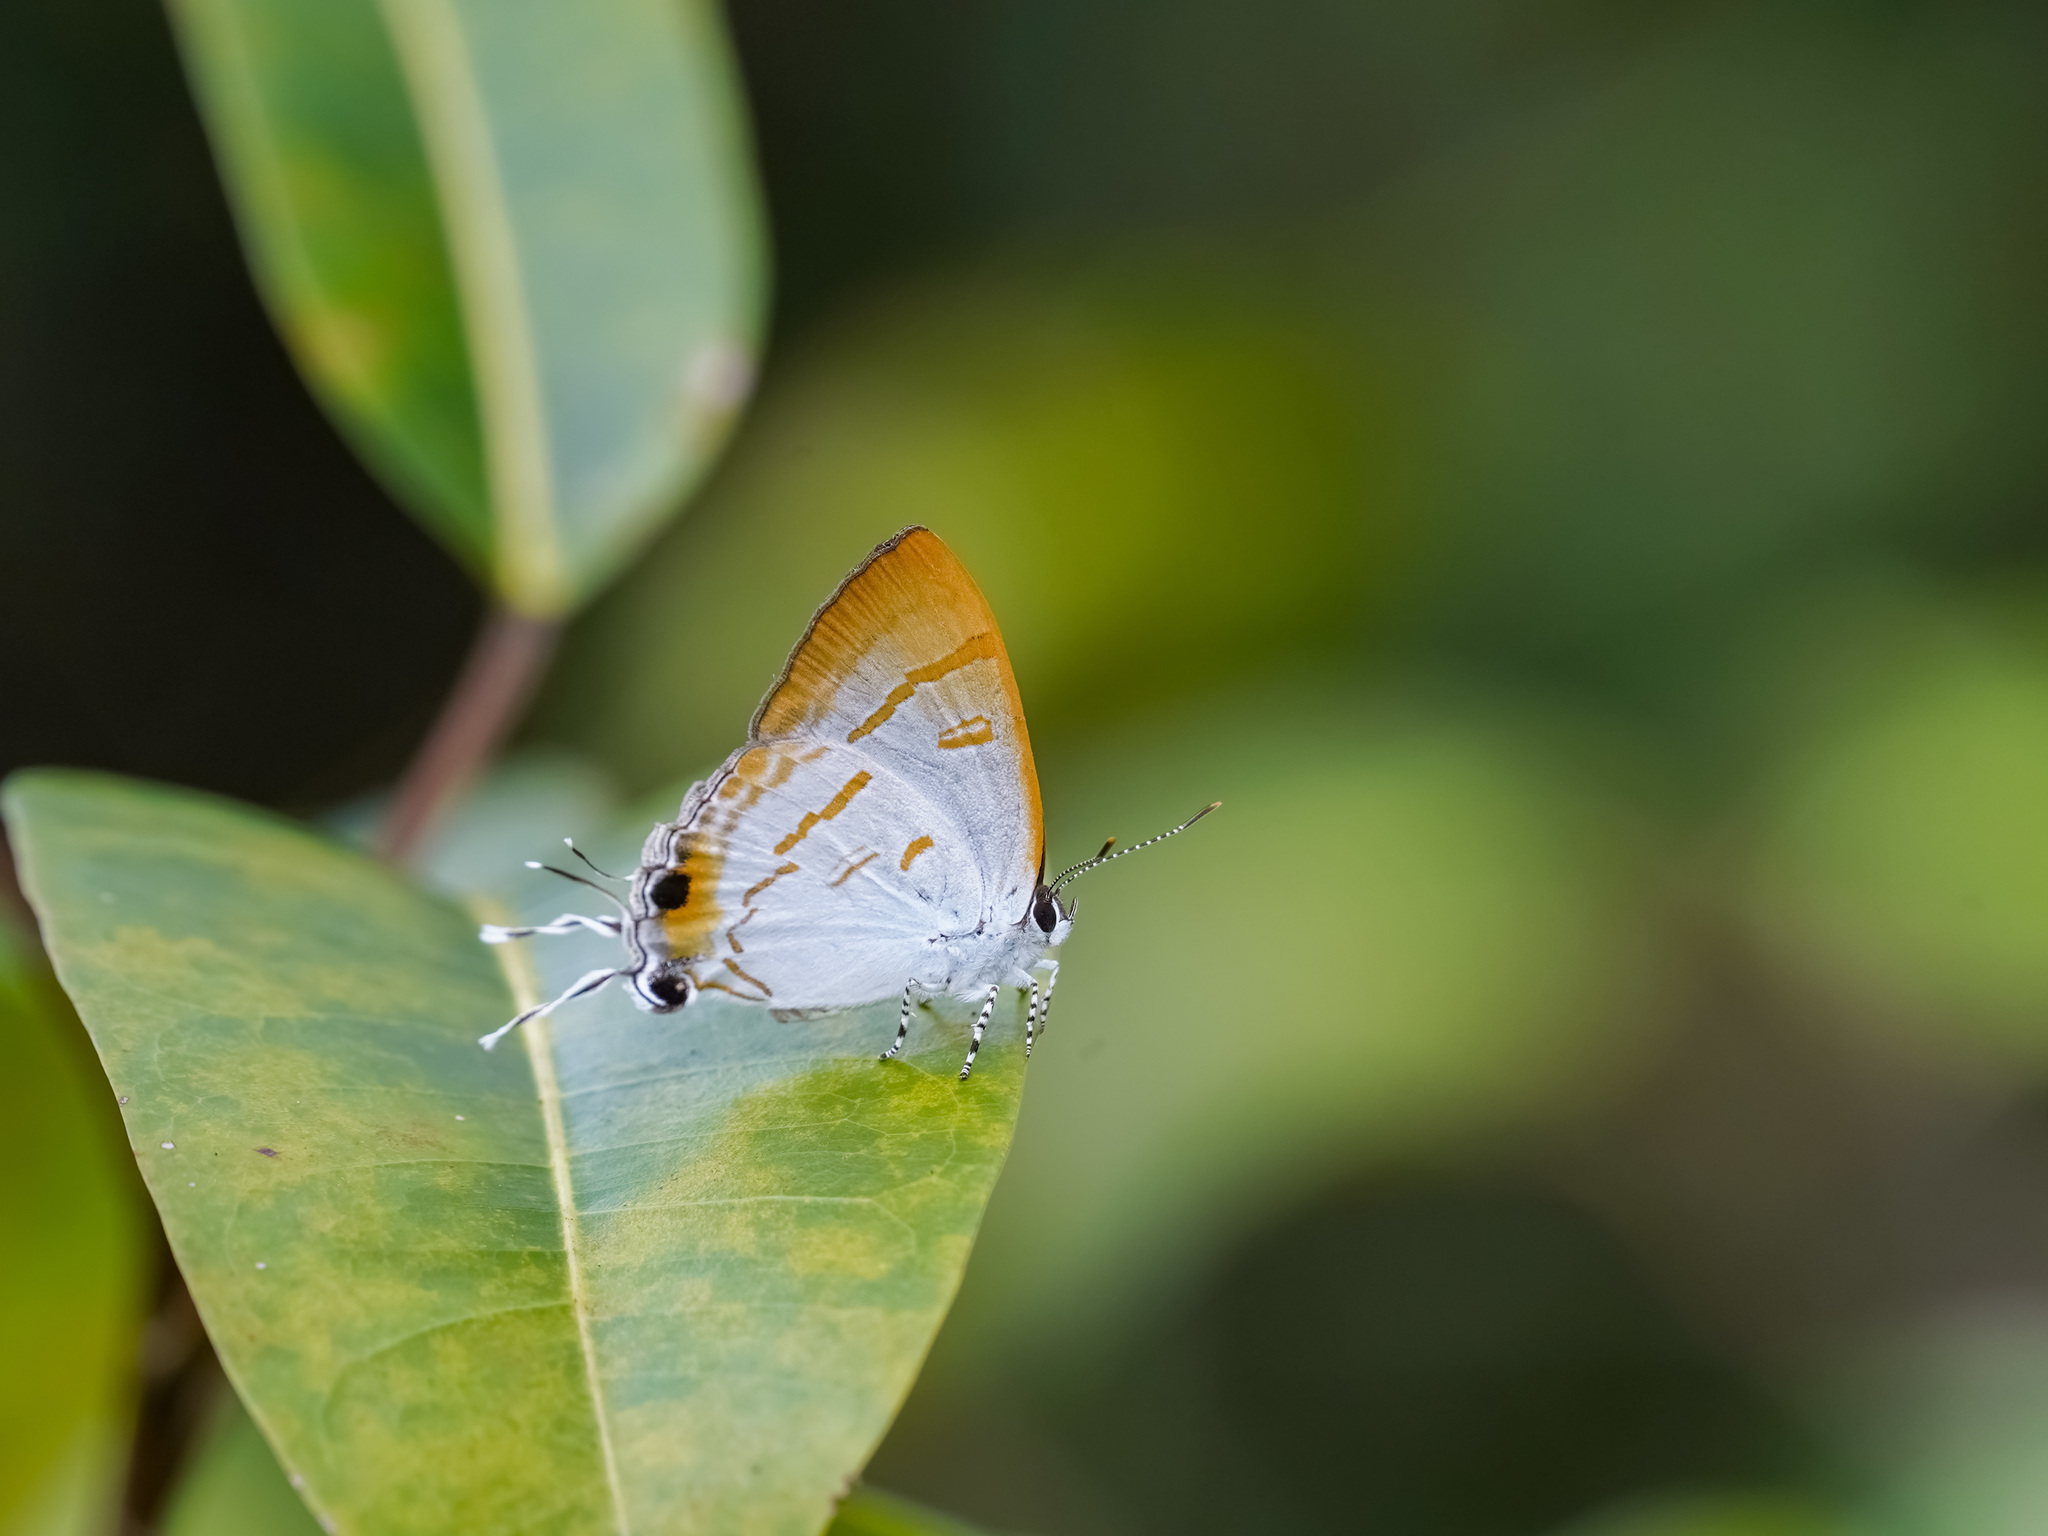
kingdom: Animalia
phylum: Arthropoda
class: Insecta
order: Lepidoptera
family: Lycaenidae
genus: Hypolycaena
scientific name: Hypolycaena thecloides
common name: Dark tit
